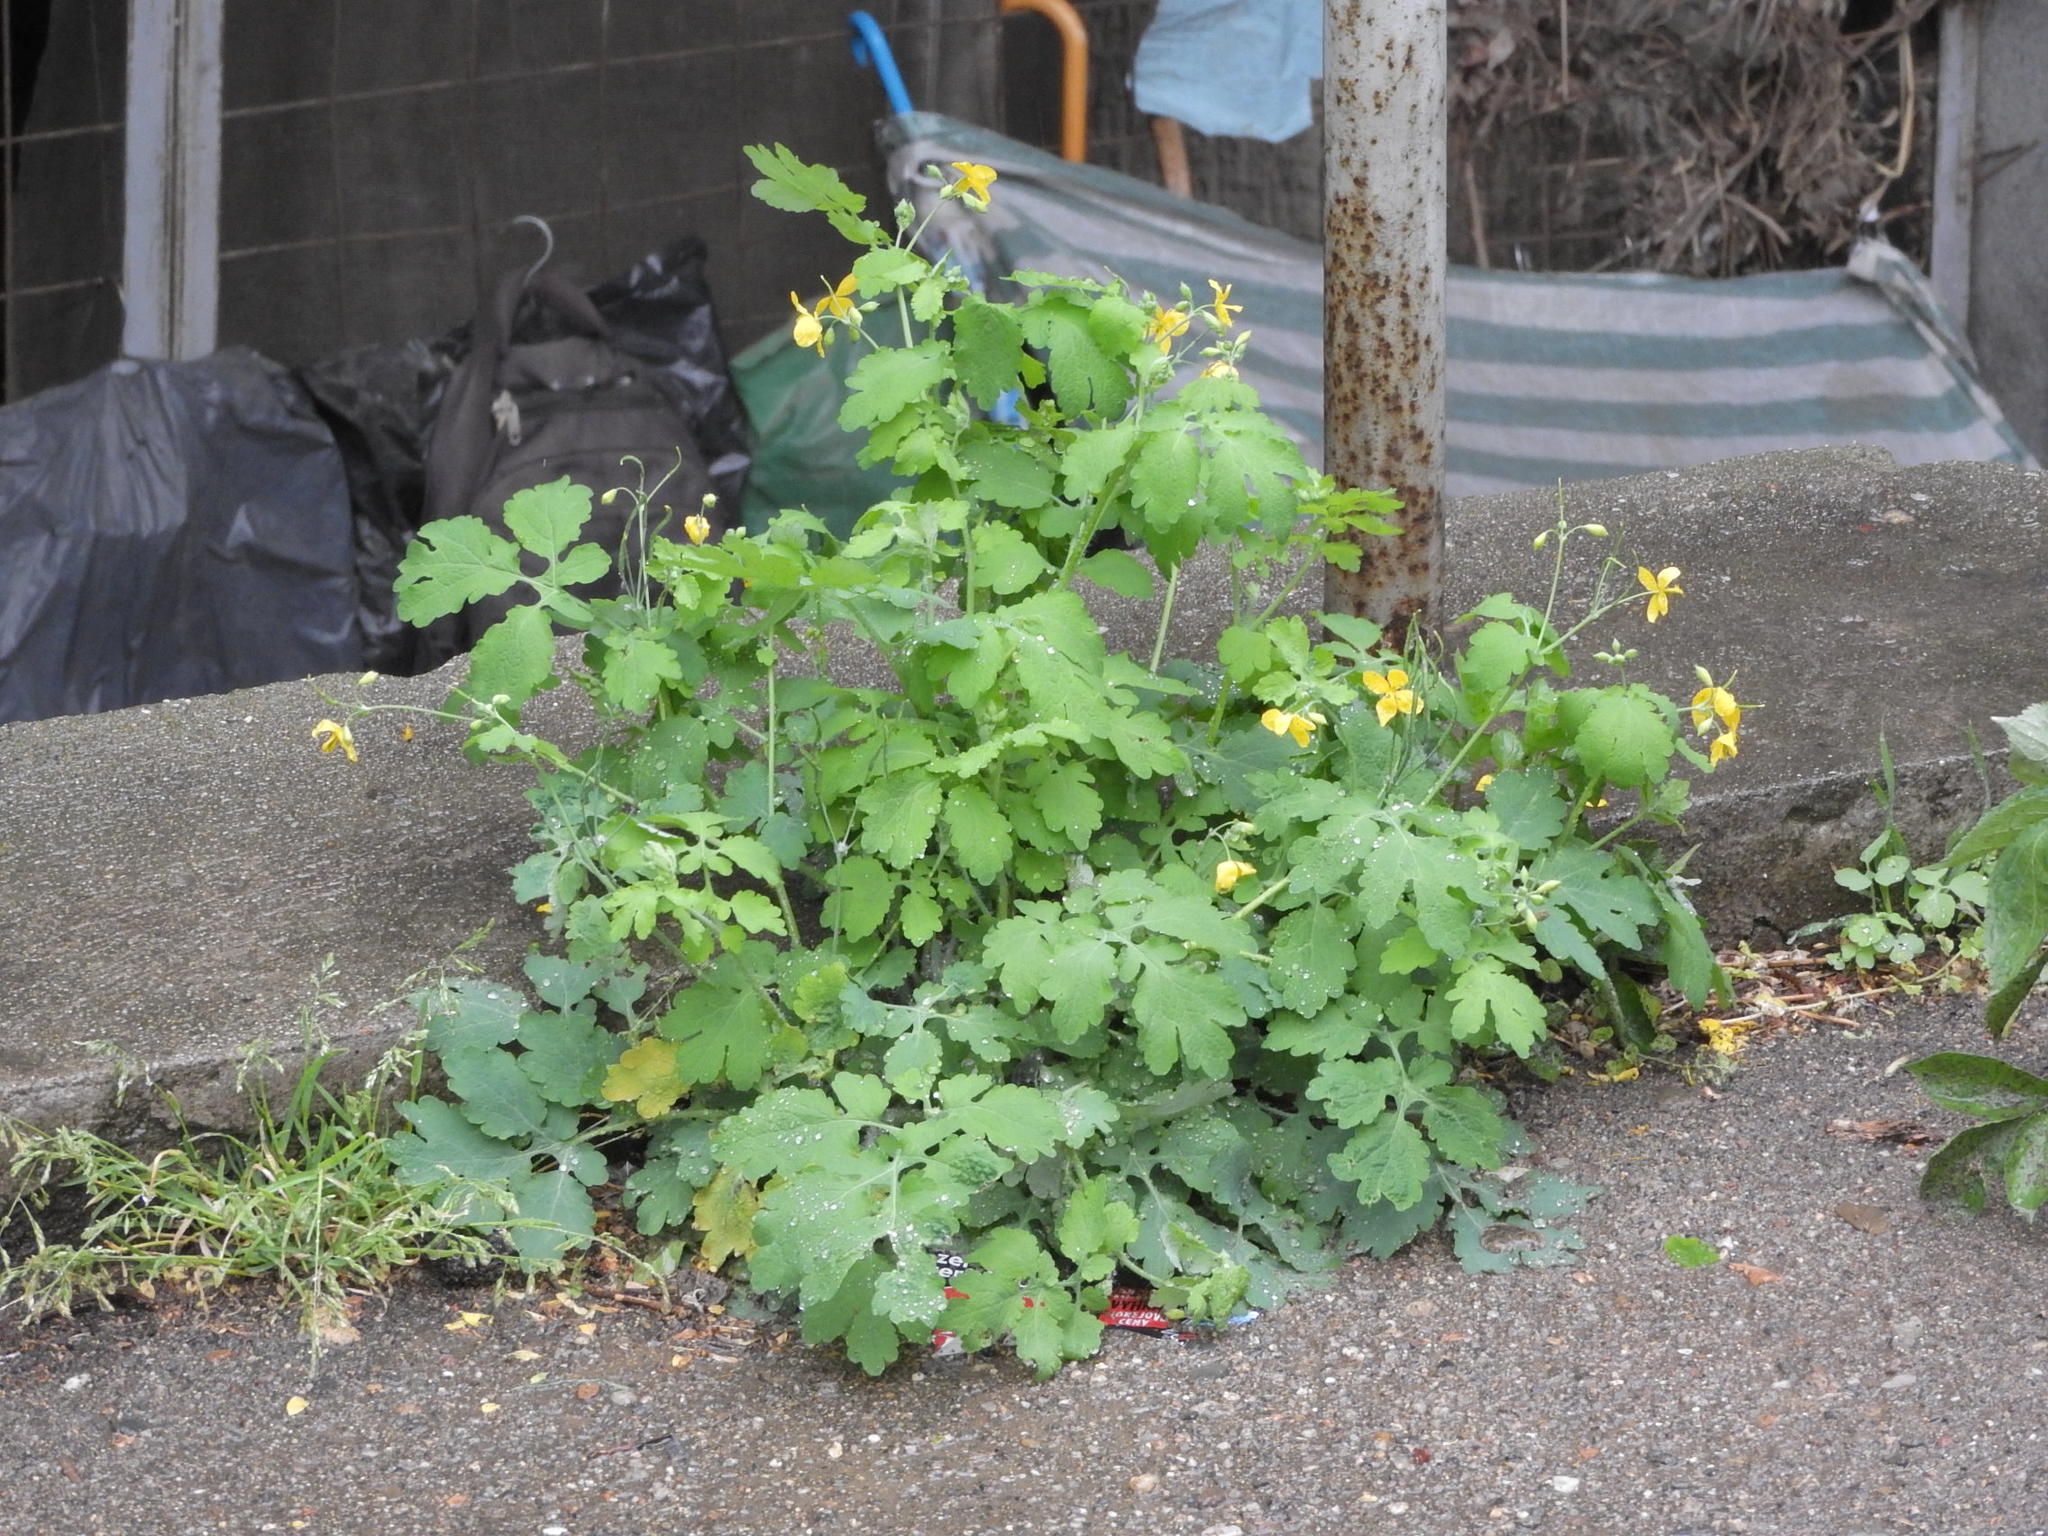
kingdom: Plantae
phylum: Tracheophyta
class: Magnoliopsida
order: Ranunculales
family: Papaveraceae
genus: Chelidonium
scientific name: Chelidonium majus
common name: Greater celandine
